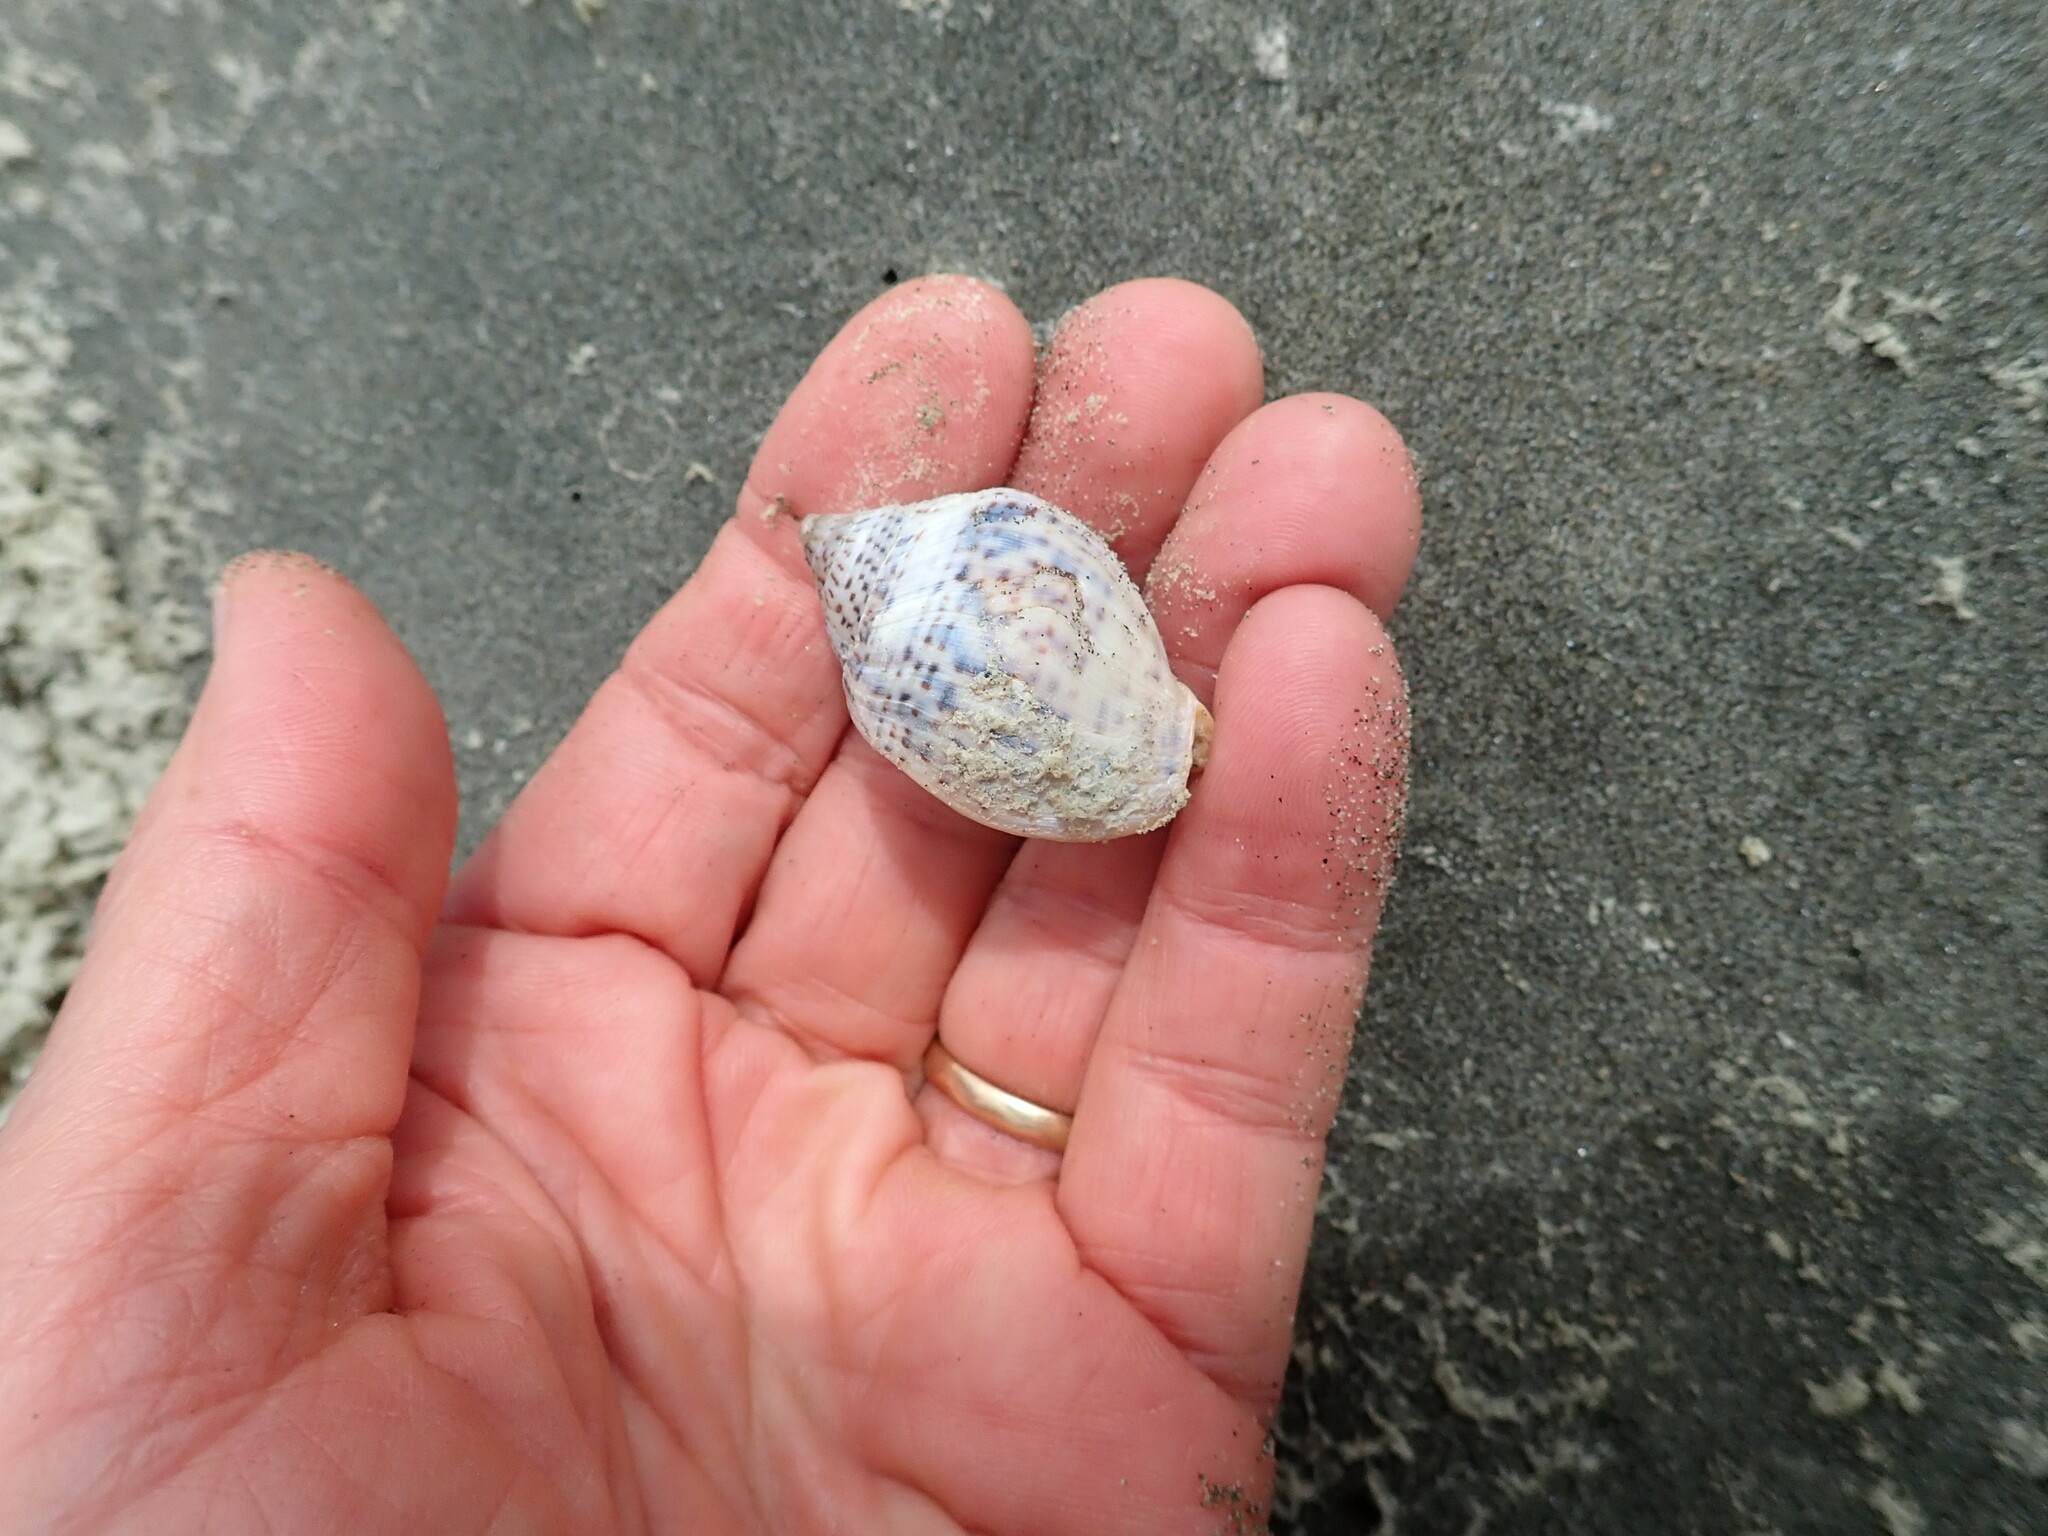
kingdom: Animalia
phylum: Mollusca
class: Gastropoda
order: Neogastropoda
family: Cominellidae
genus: Cominella
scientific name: Cominella adspersa
